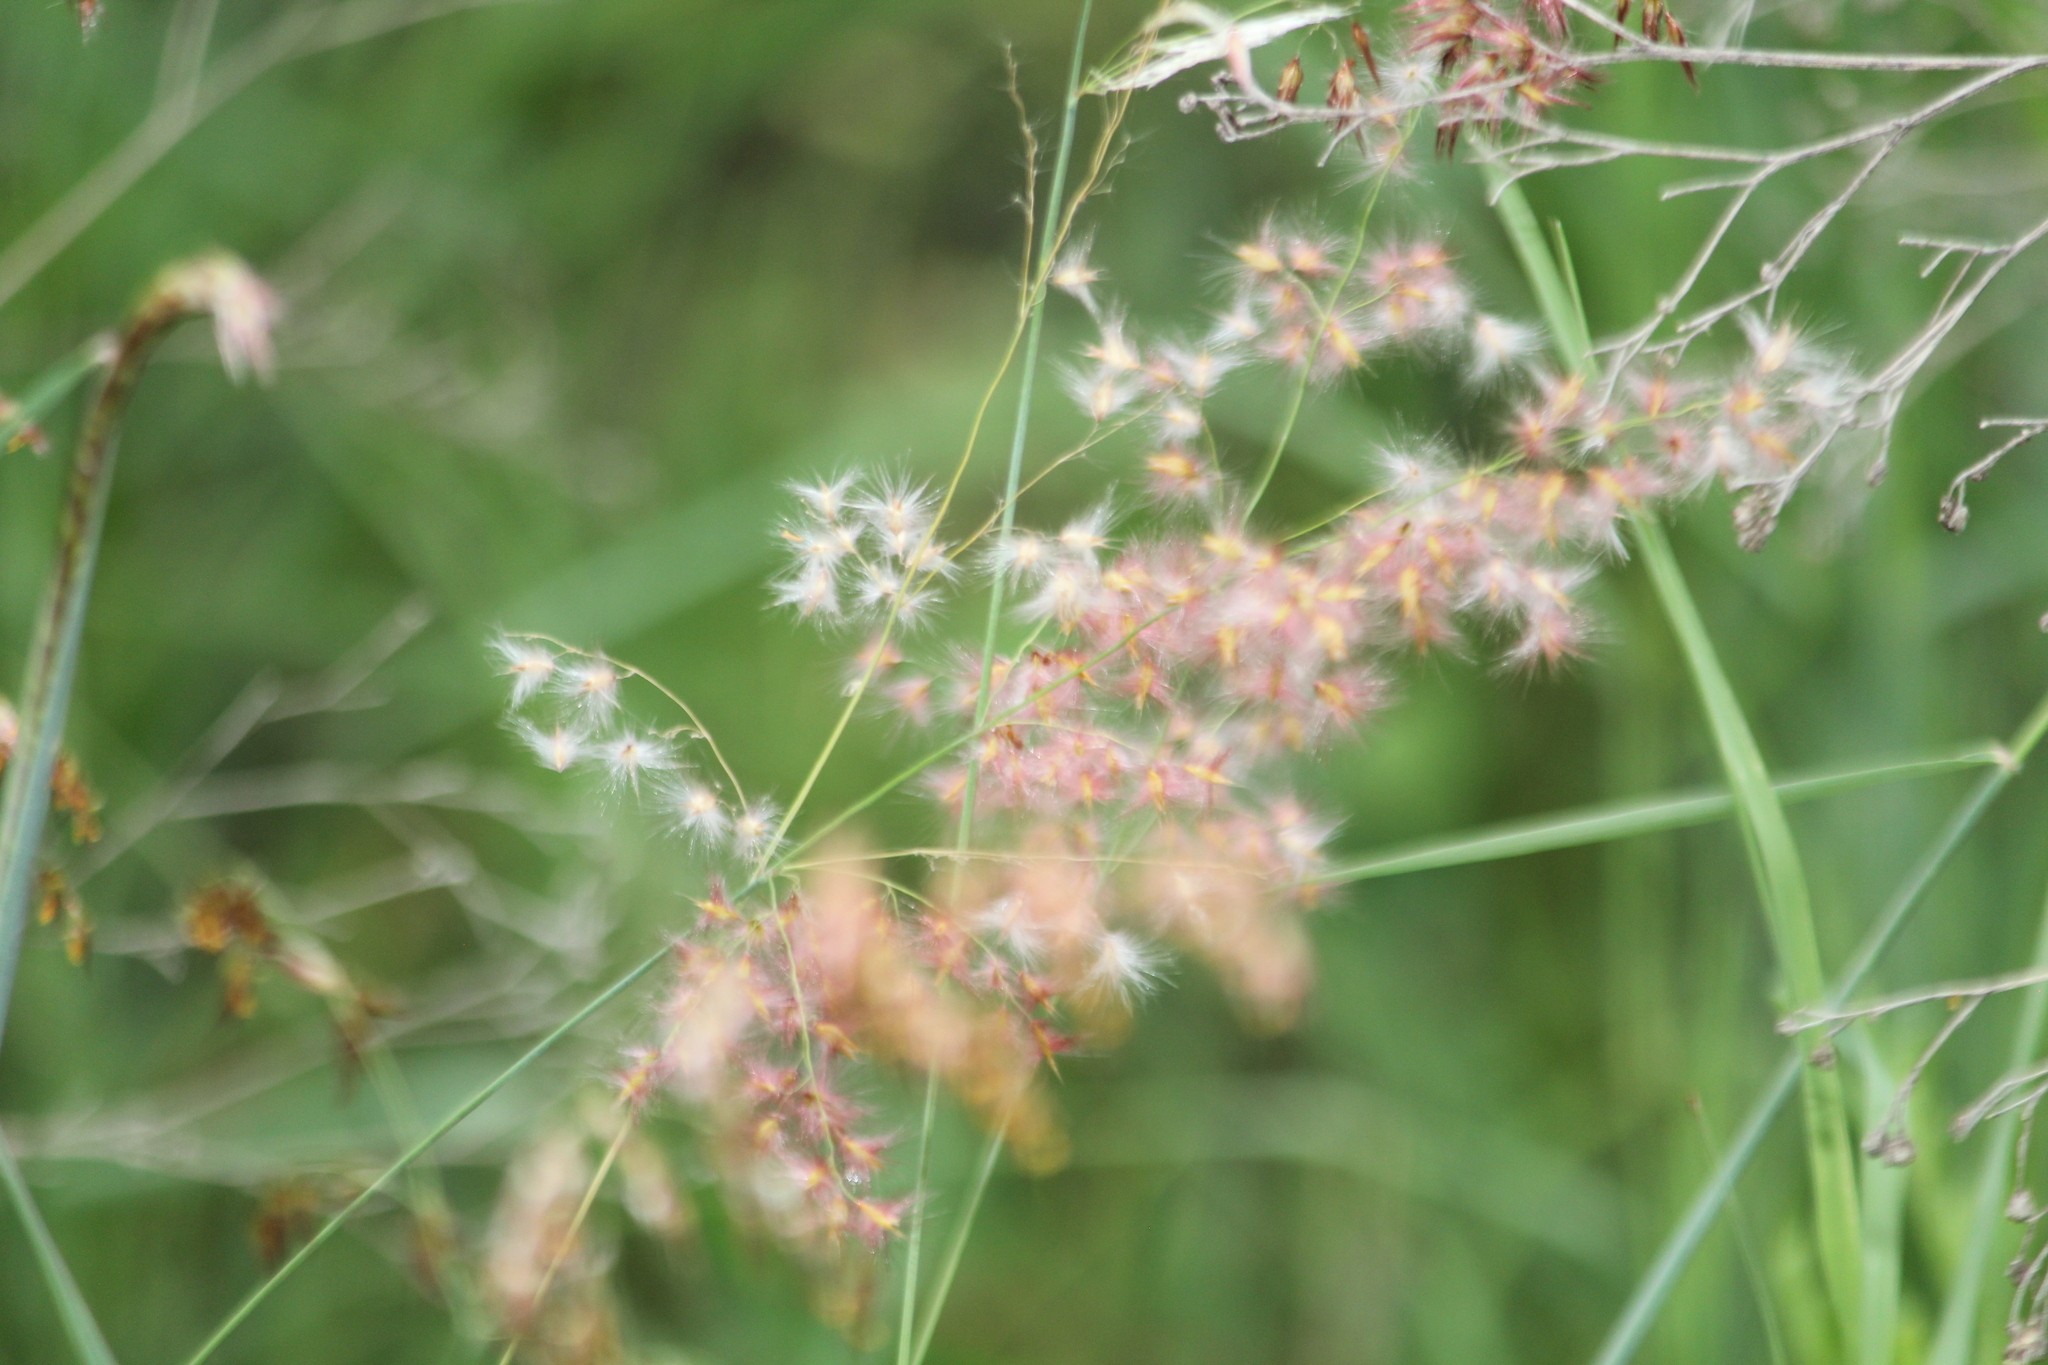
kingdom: Plantae
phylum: Tracheophyta
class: Liliopsida
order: Poales
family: Poaceae
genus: Melinis
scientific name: Melinis repens
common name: Rose natal grass
